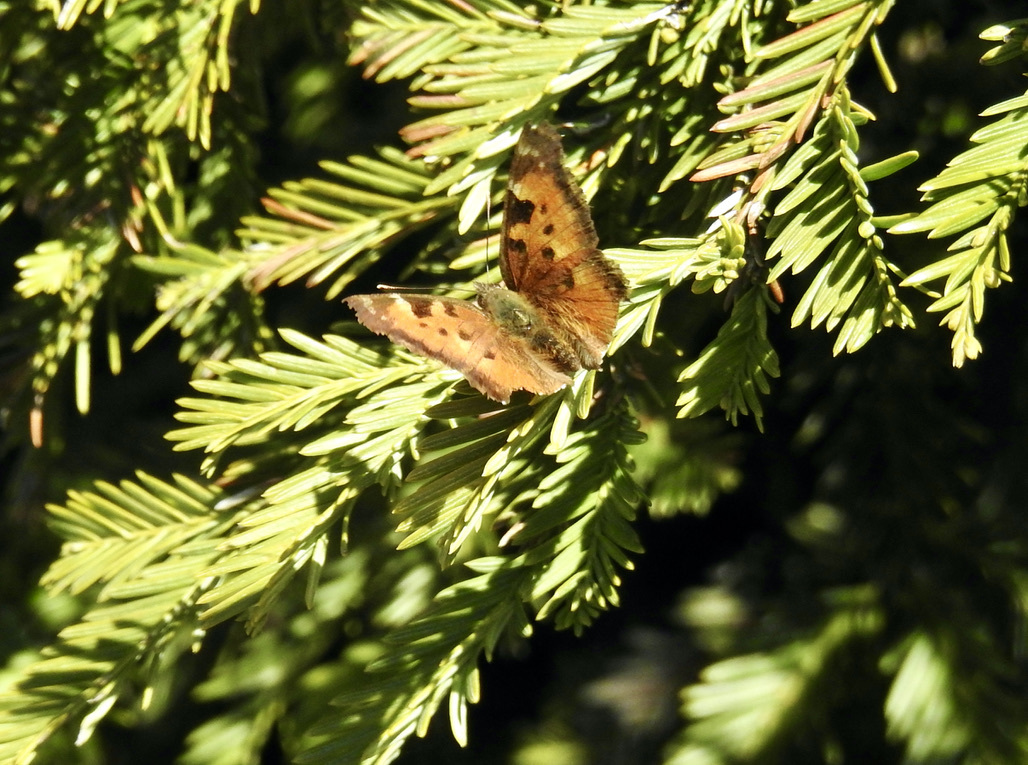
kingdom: Animalia
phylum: Arthropoda
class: Insecta
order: Lepidoptera
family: Nymphalidae
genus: Nymphalis
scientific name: Nymphalis californica
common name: California tortoiseshell
